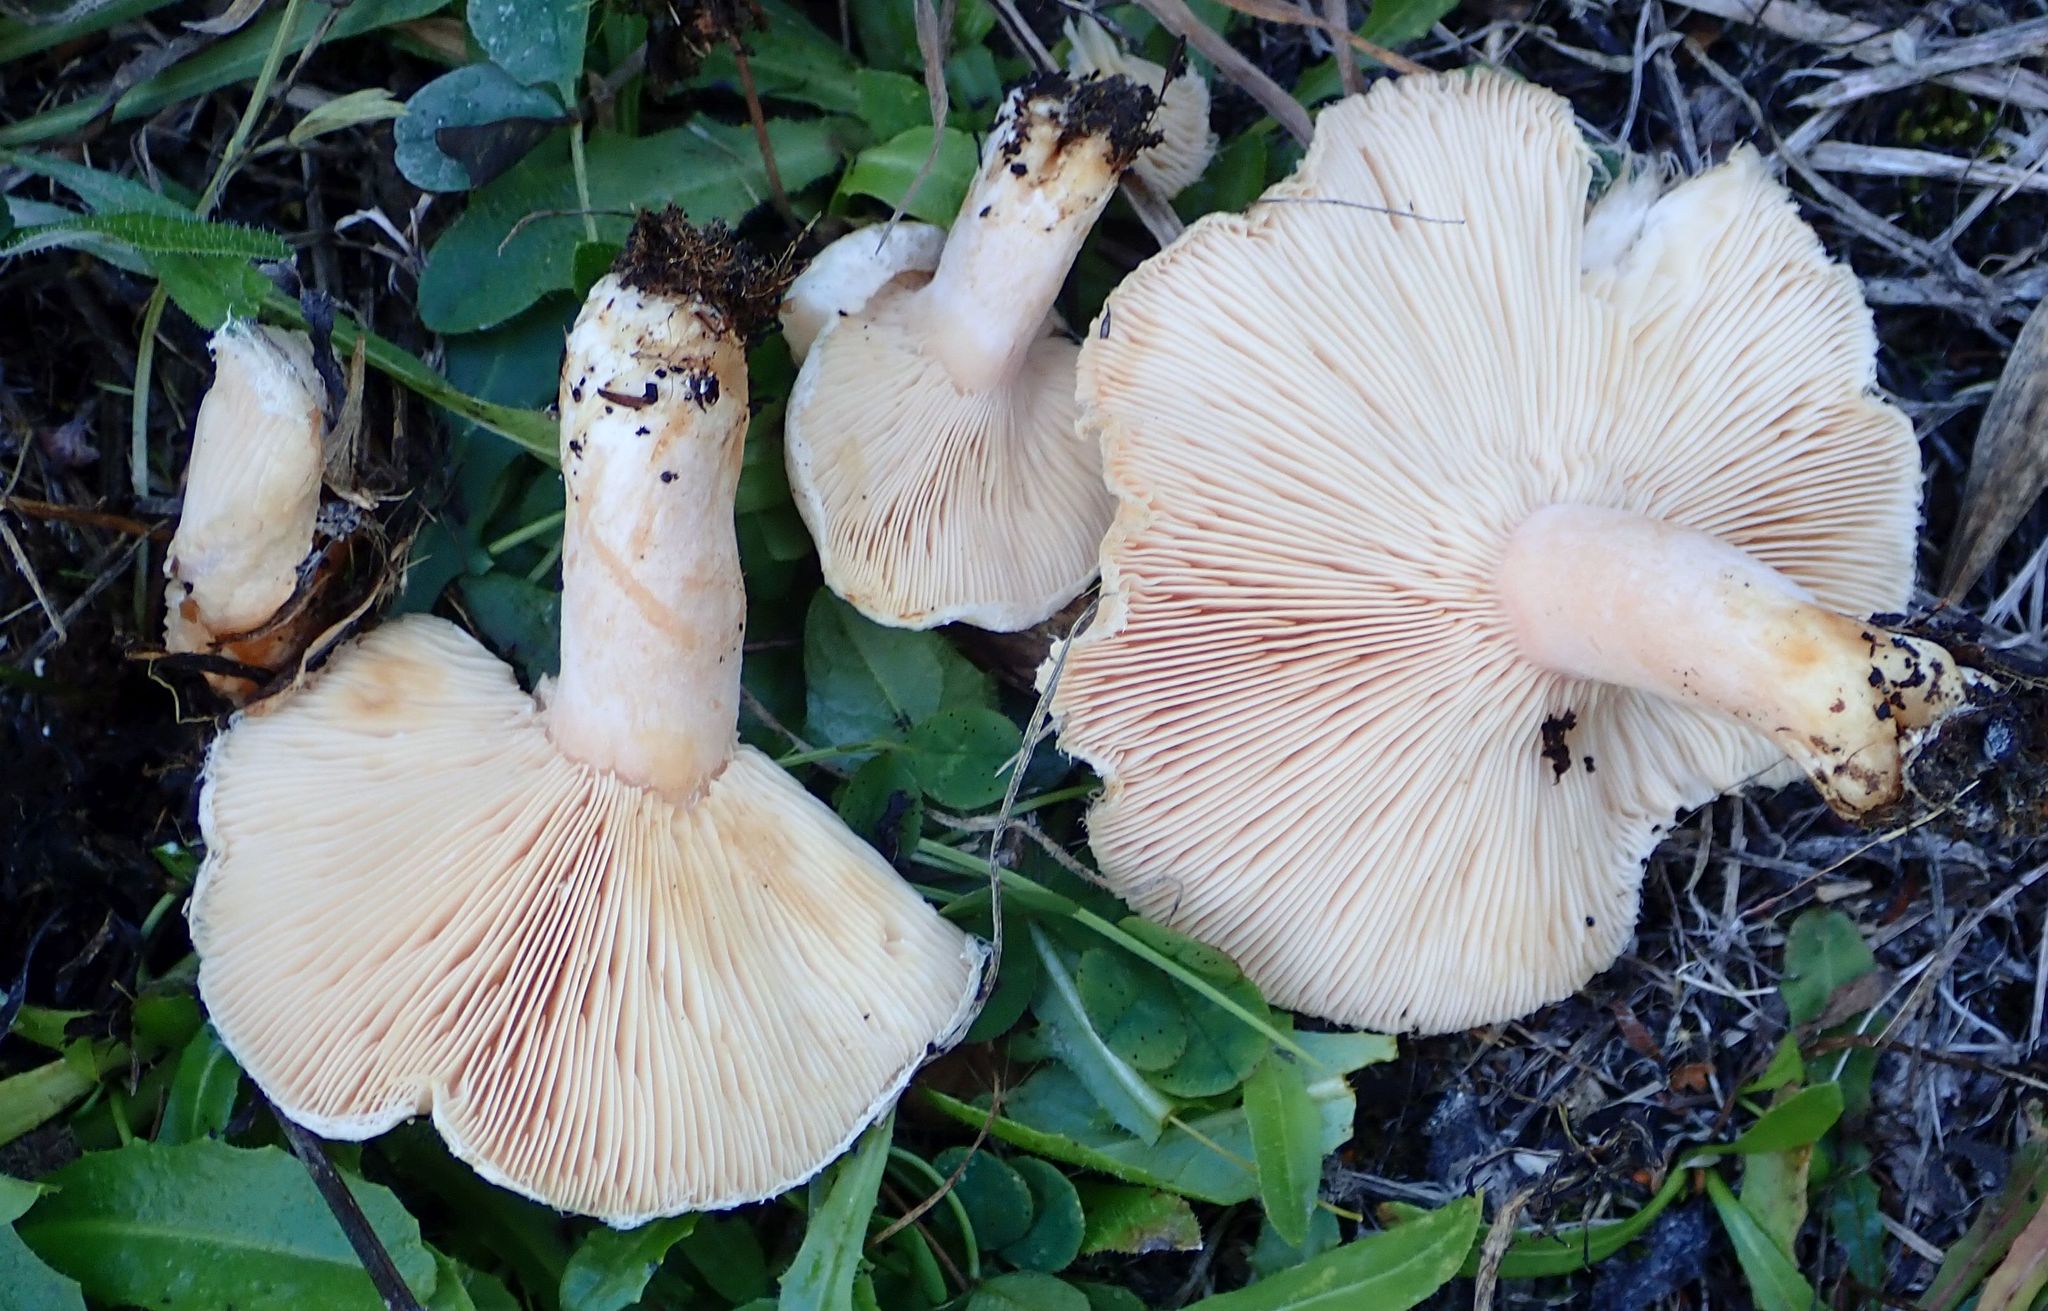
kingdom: Fungi
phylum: Basidiomycota
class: Agaricomycetes
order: Russulales
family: Russulaceae
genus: Lactarius
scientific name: Lactarius pubescens
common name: Bearded milkcap
